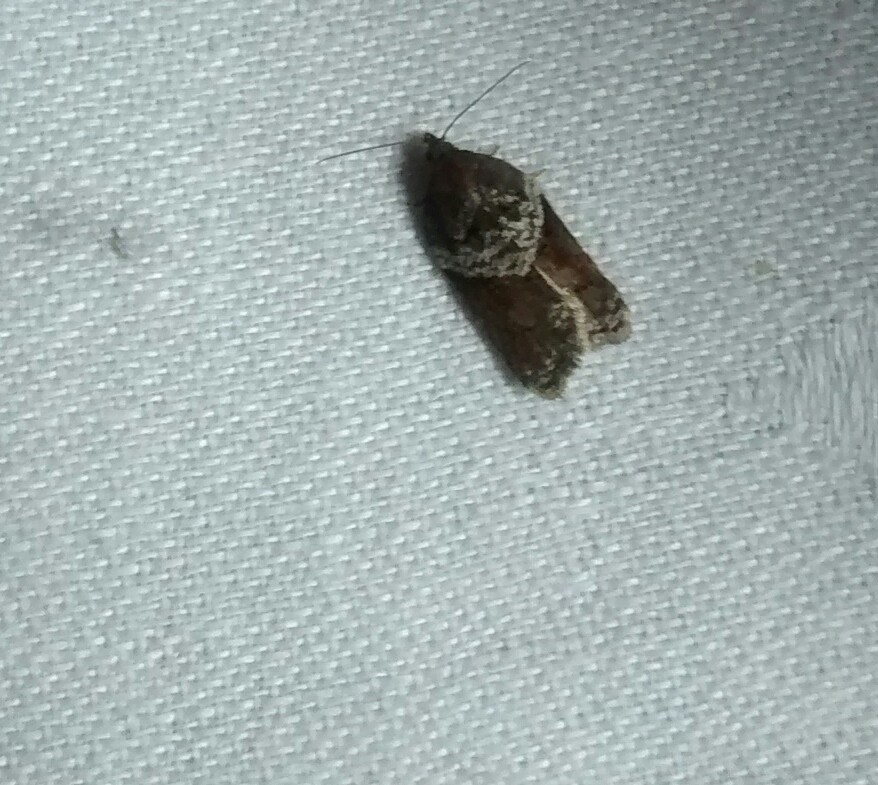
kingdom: Animalia
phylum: Arthropoda
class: Insecta
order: Lepidoptera
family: Tortricidae
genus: Acleris
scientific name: Acleris celiana
